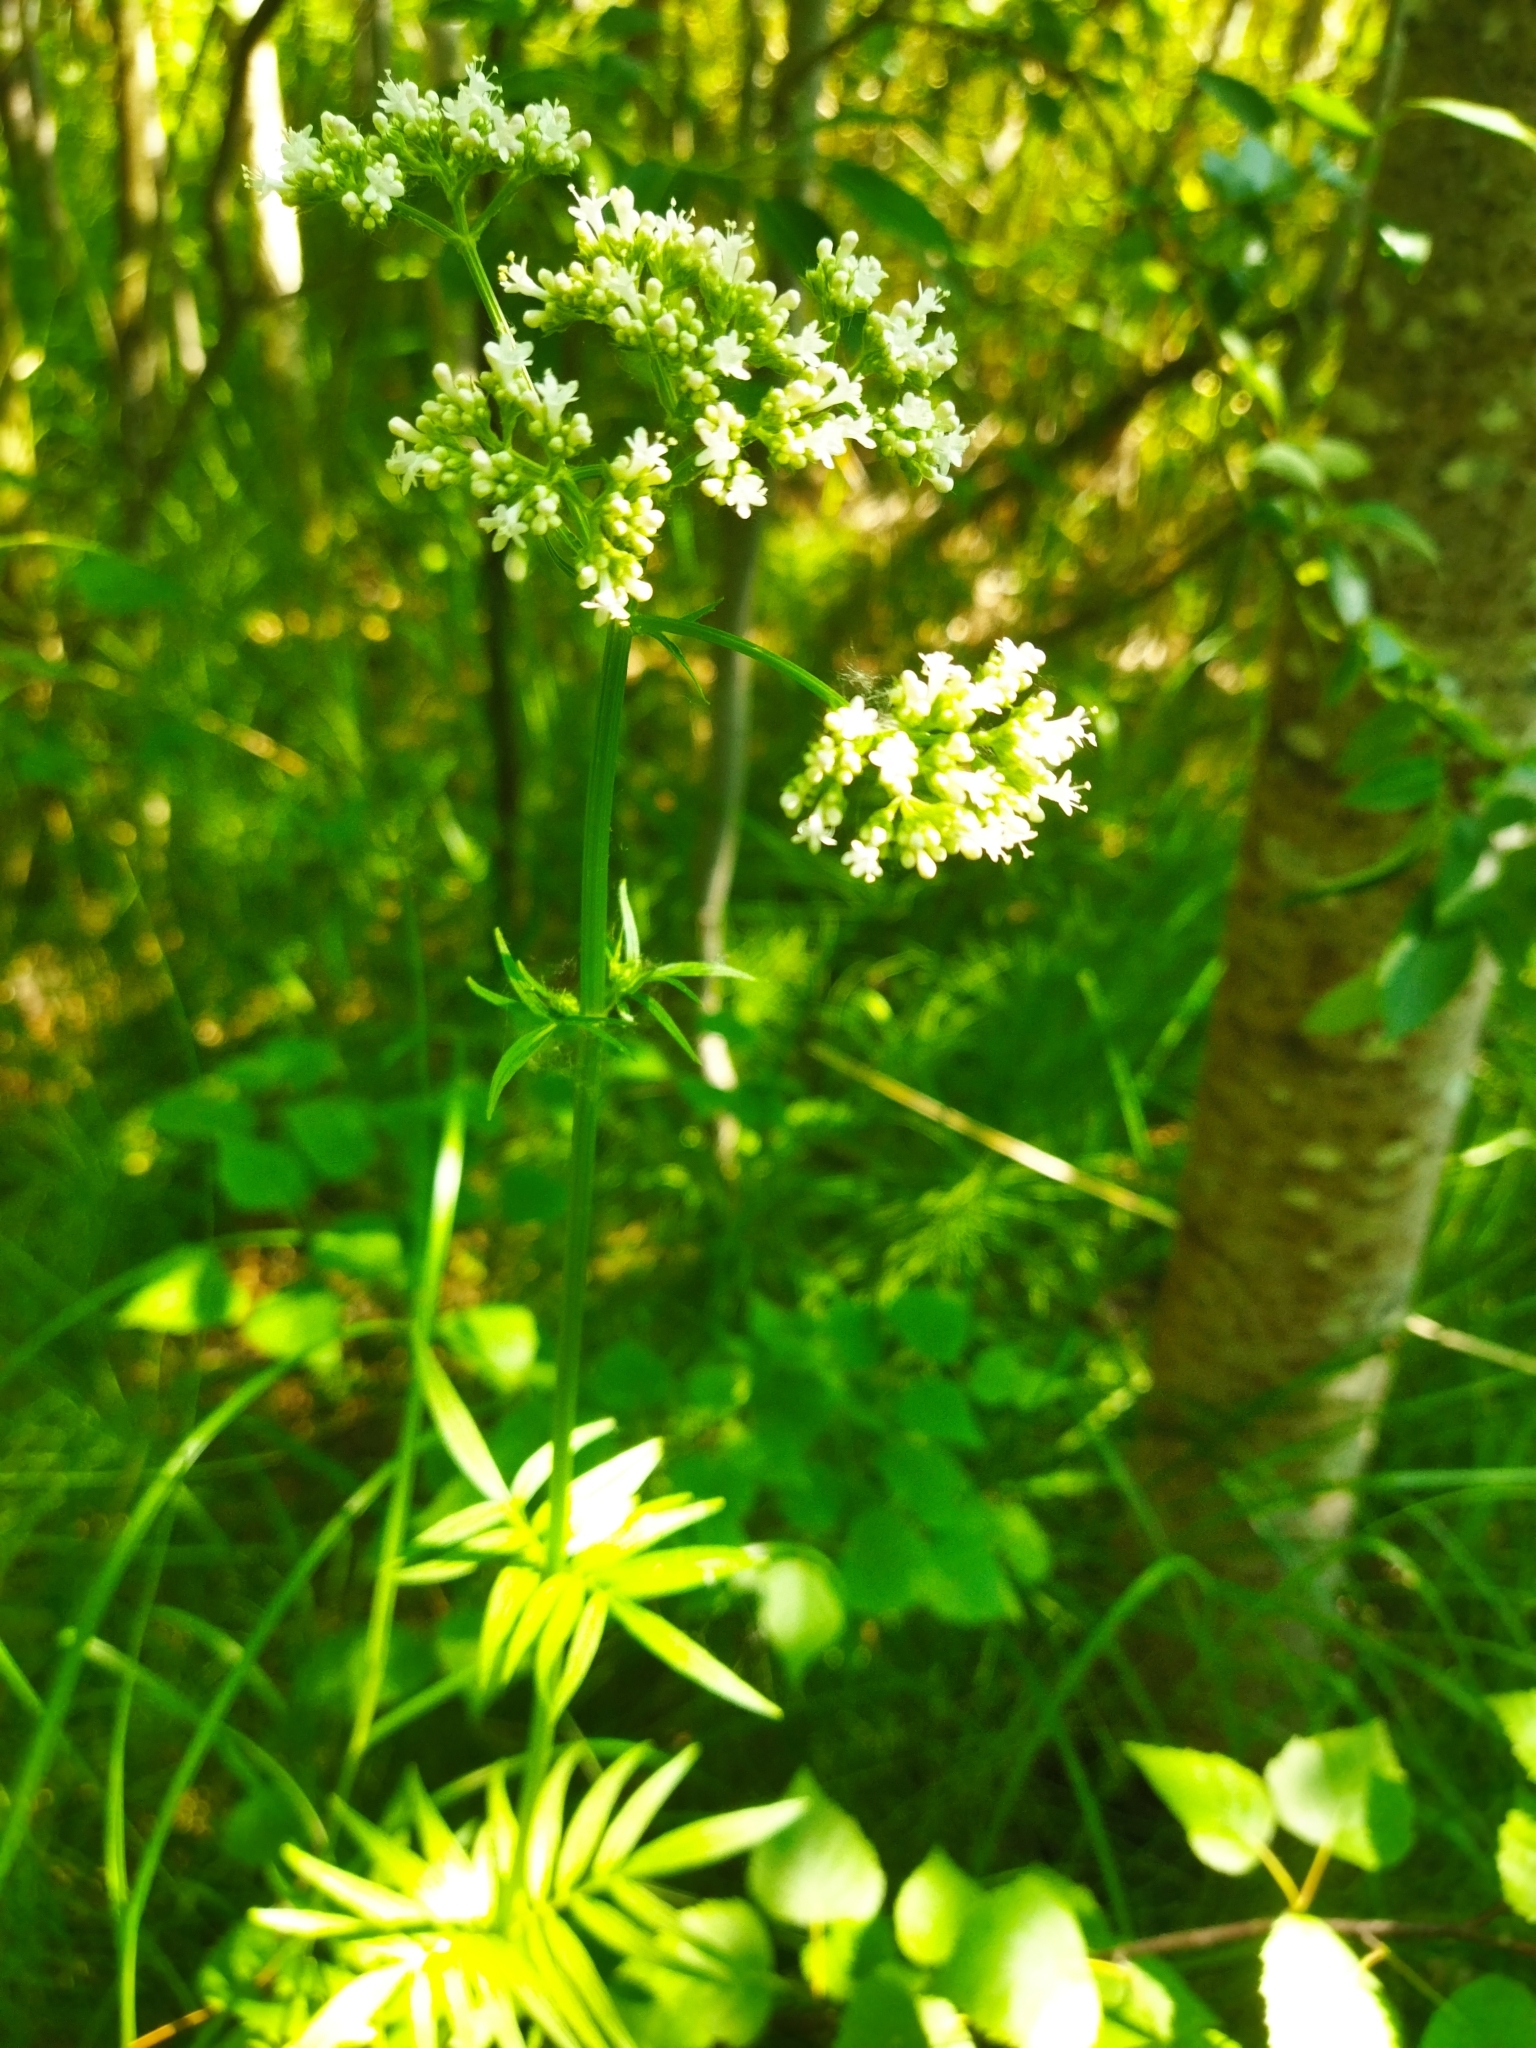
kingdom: Plantae
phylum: Tracheophyta
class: Magnoliopsida
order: Dipsacales
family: Caprifoliaceae
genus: Valeriana
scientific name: Valeriana officinalis
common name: Common valerian
